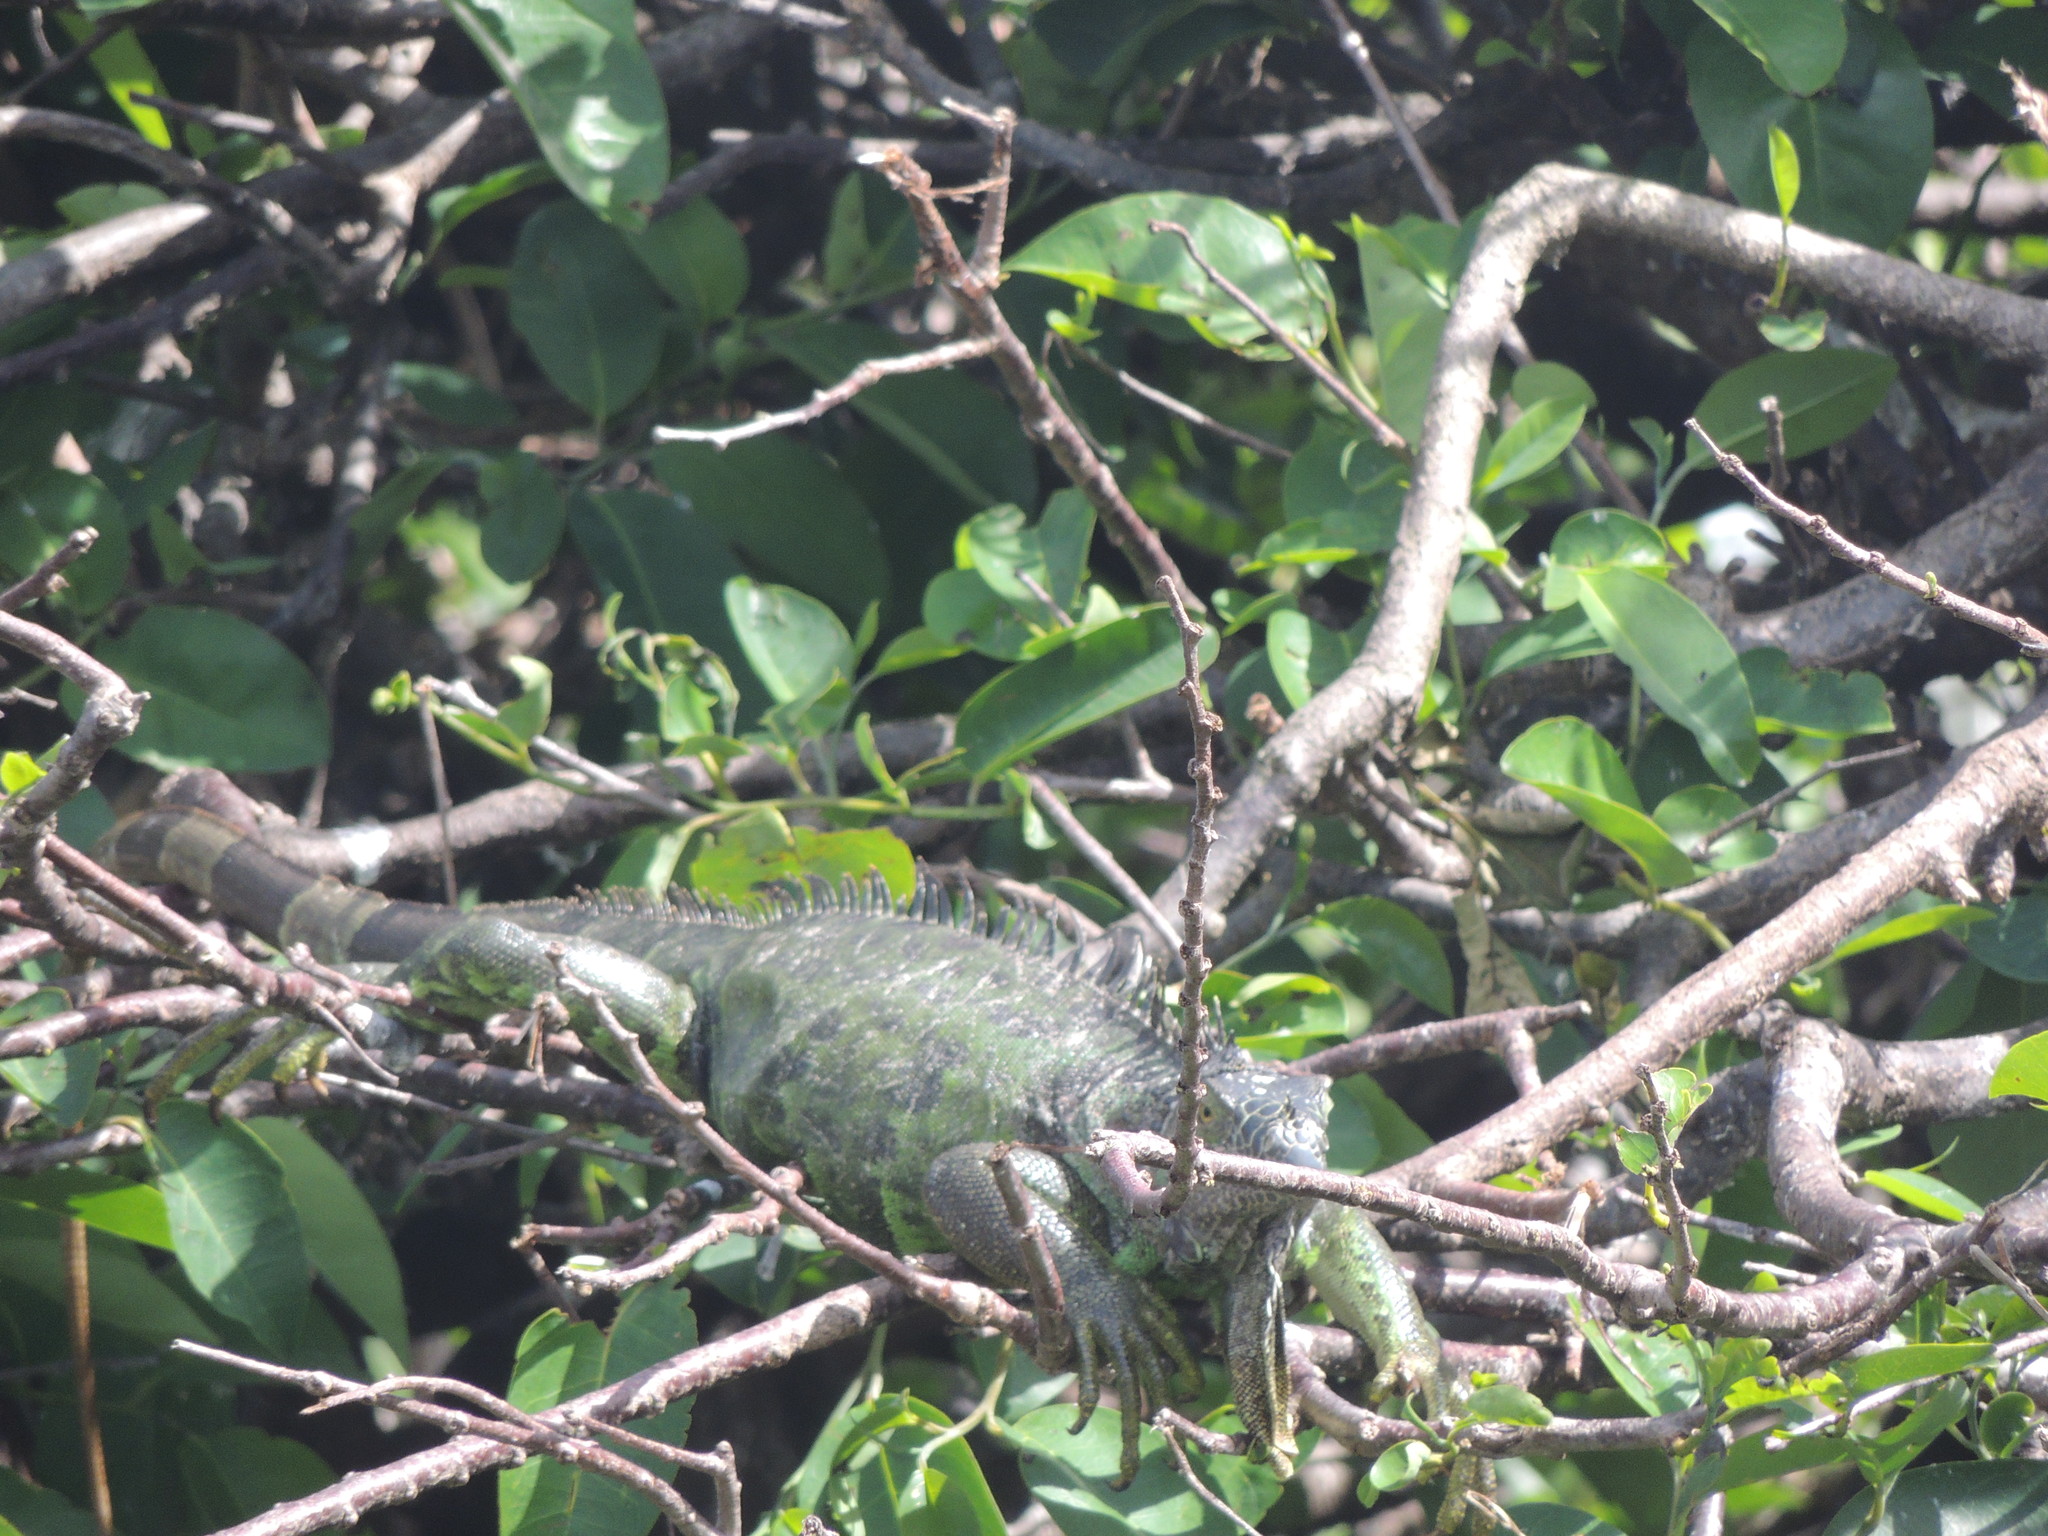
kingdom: Animalia
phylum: Chordata
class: Squamata
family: Iguanidae
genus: Iguana
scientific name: Iguana iguana
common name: Green iguana
